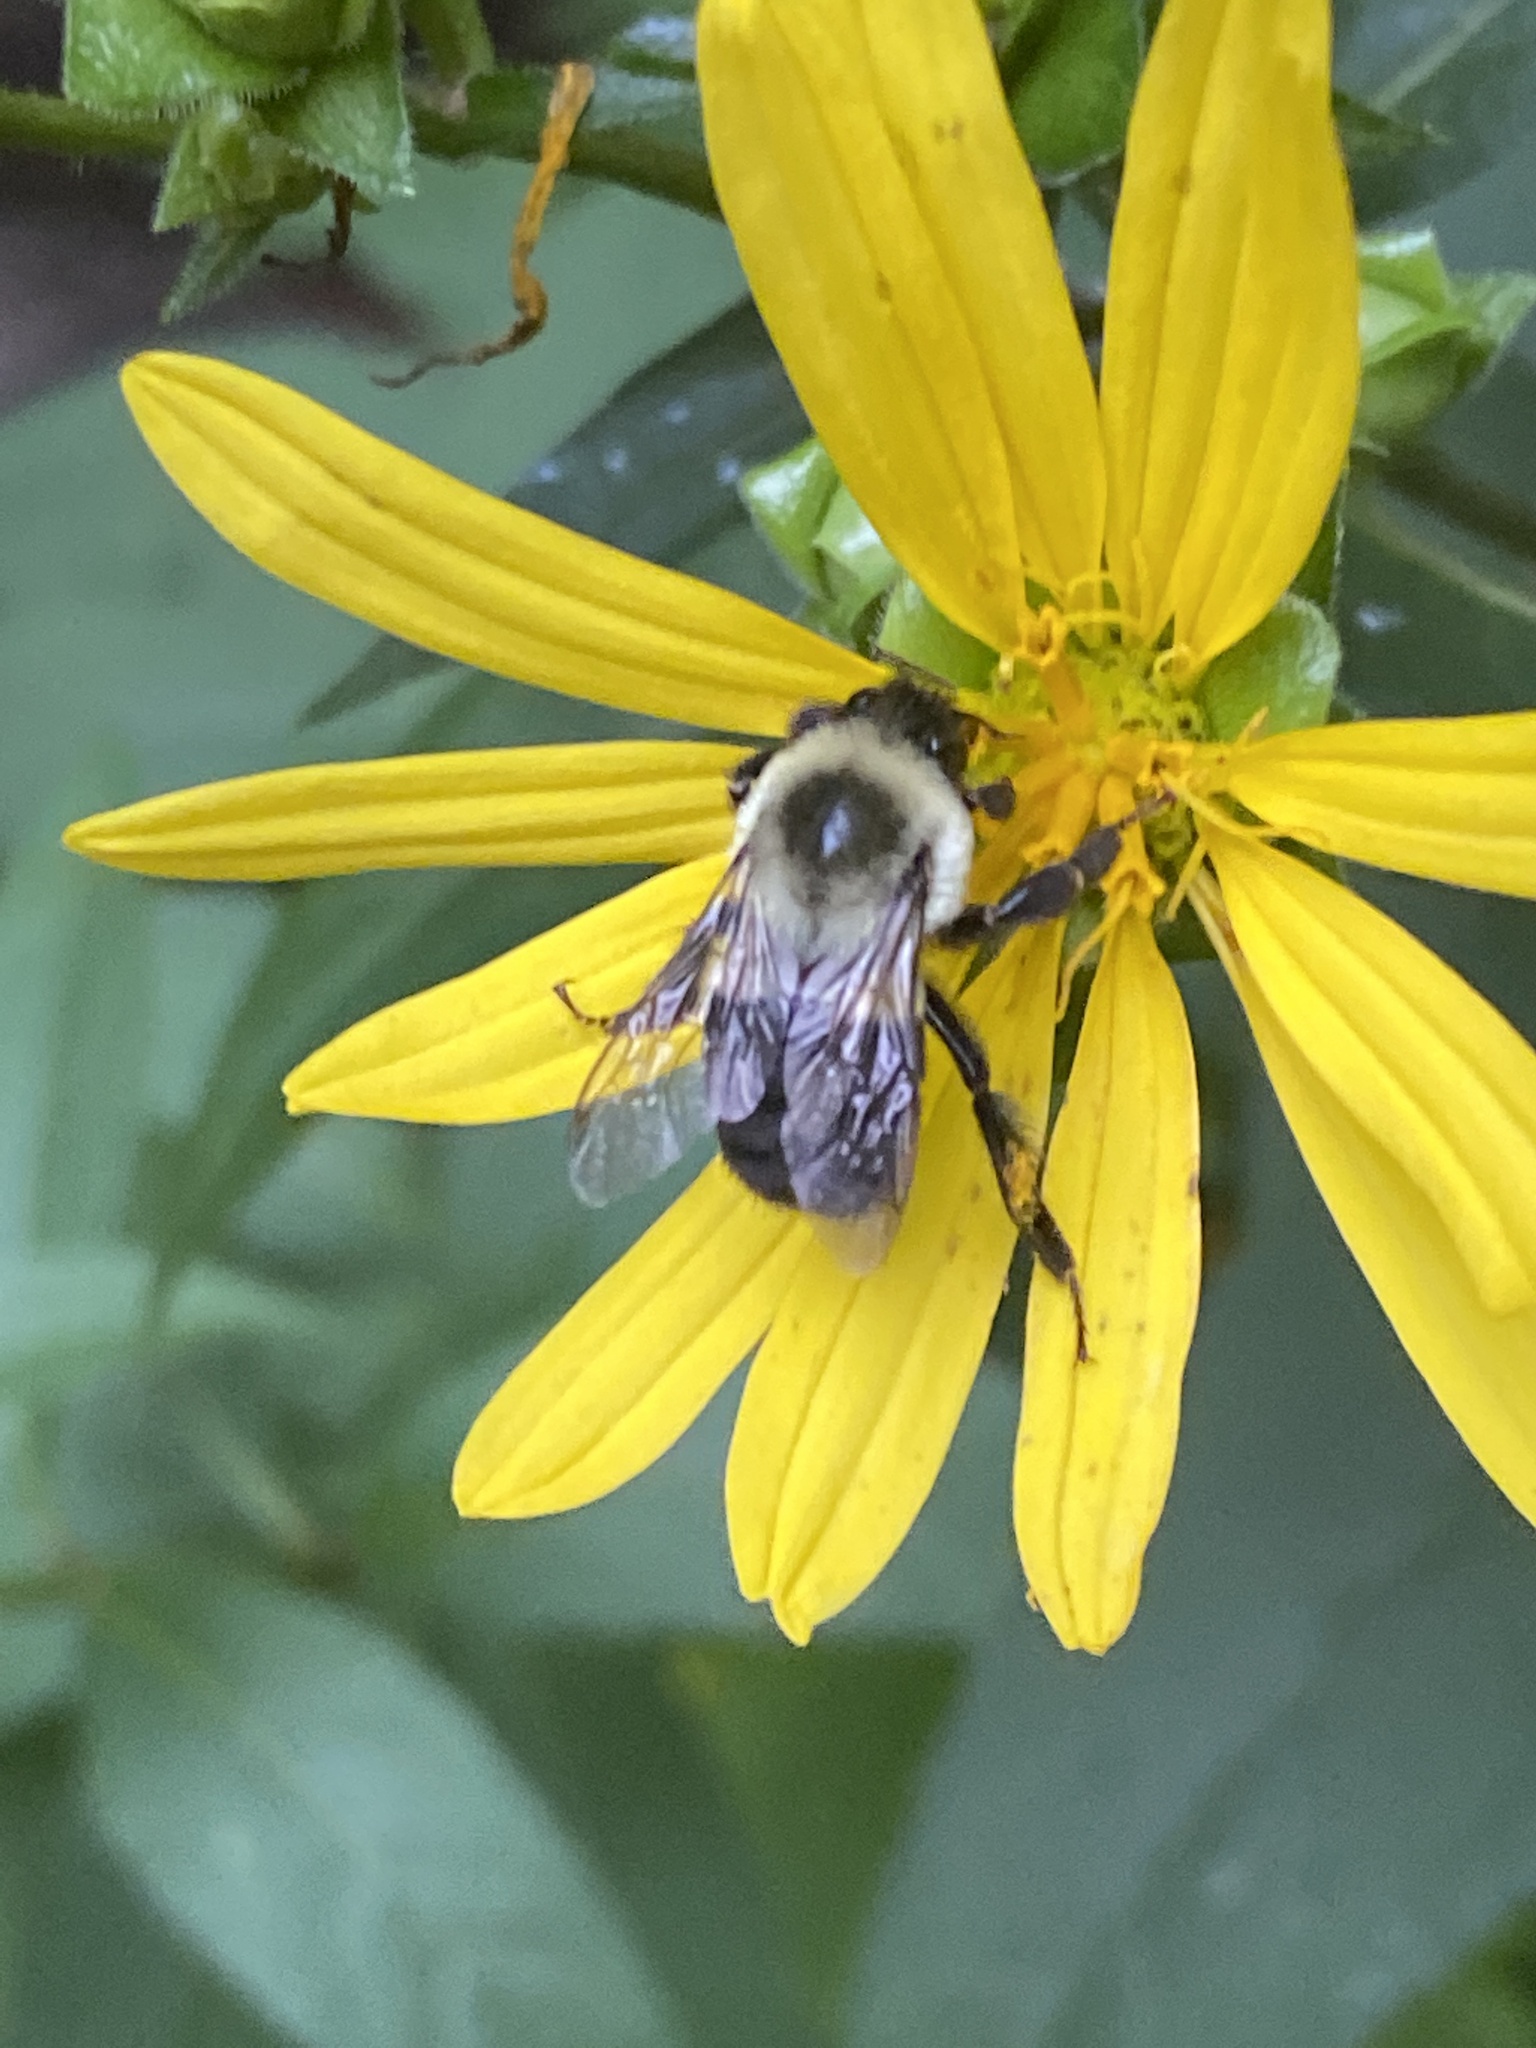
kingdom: Animalia
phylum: Arthropoda
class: Insecta
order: Hymenoptera
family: Apidae
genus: Bombus
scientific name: Bombus impatiens
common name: Common eastern bumble bee
